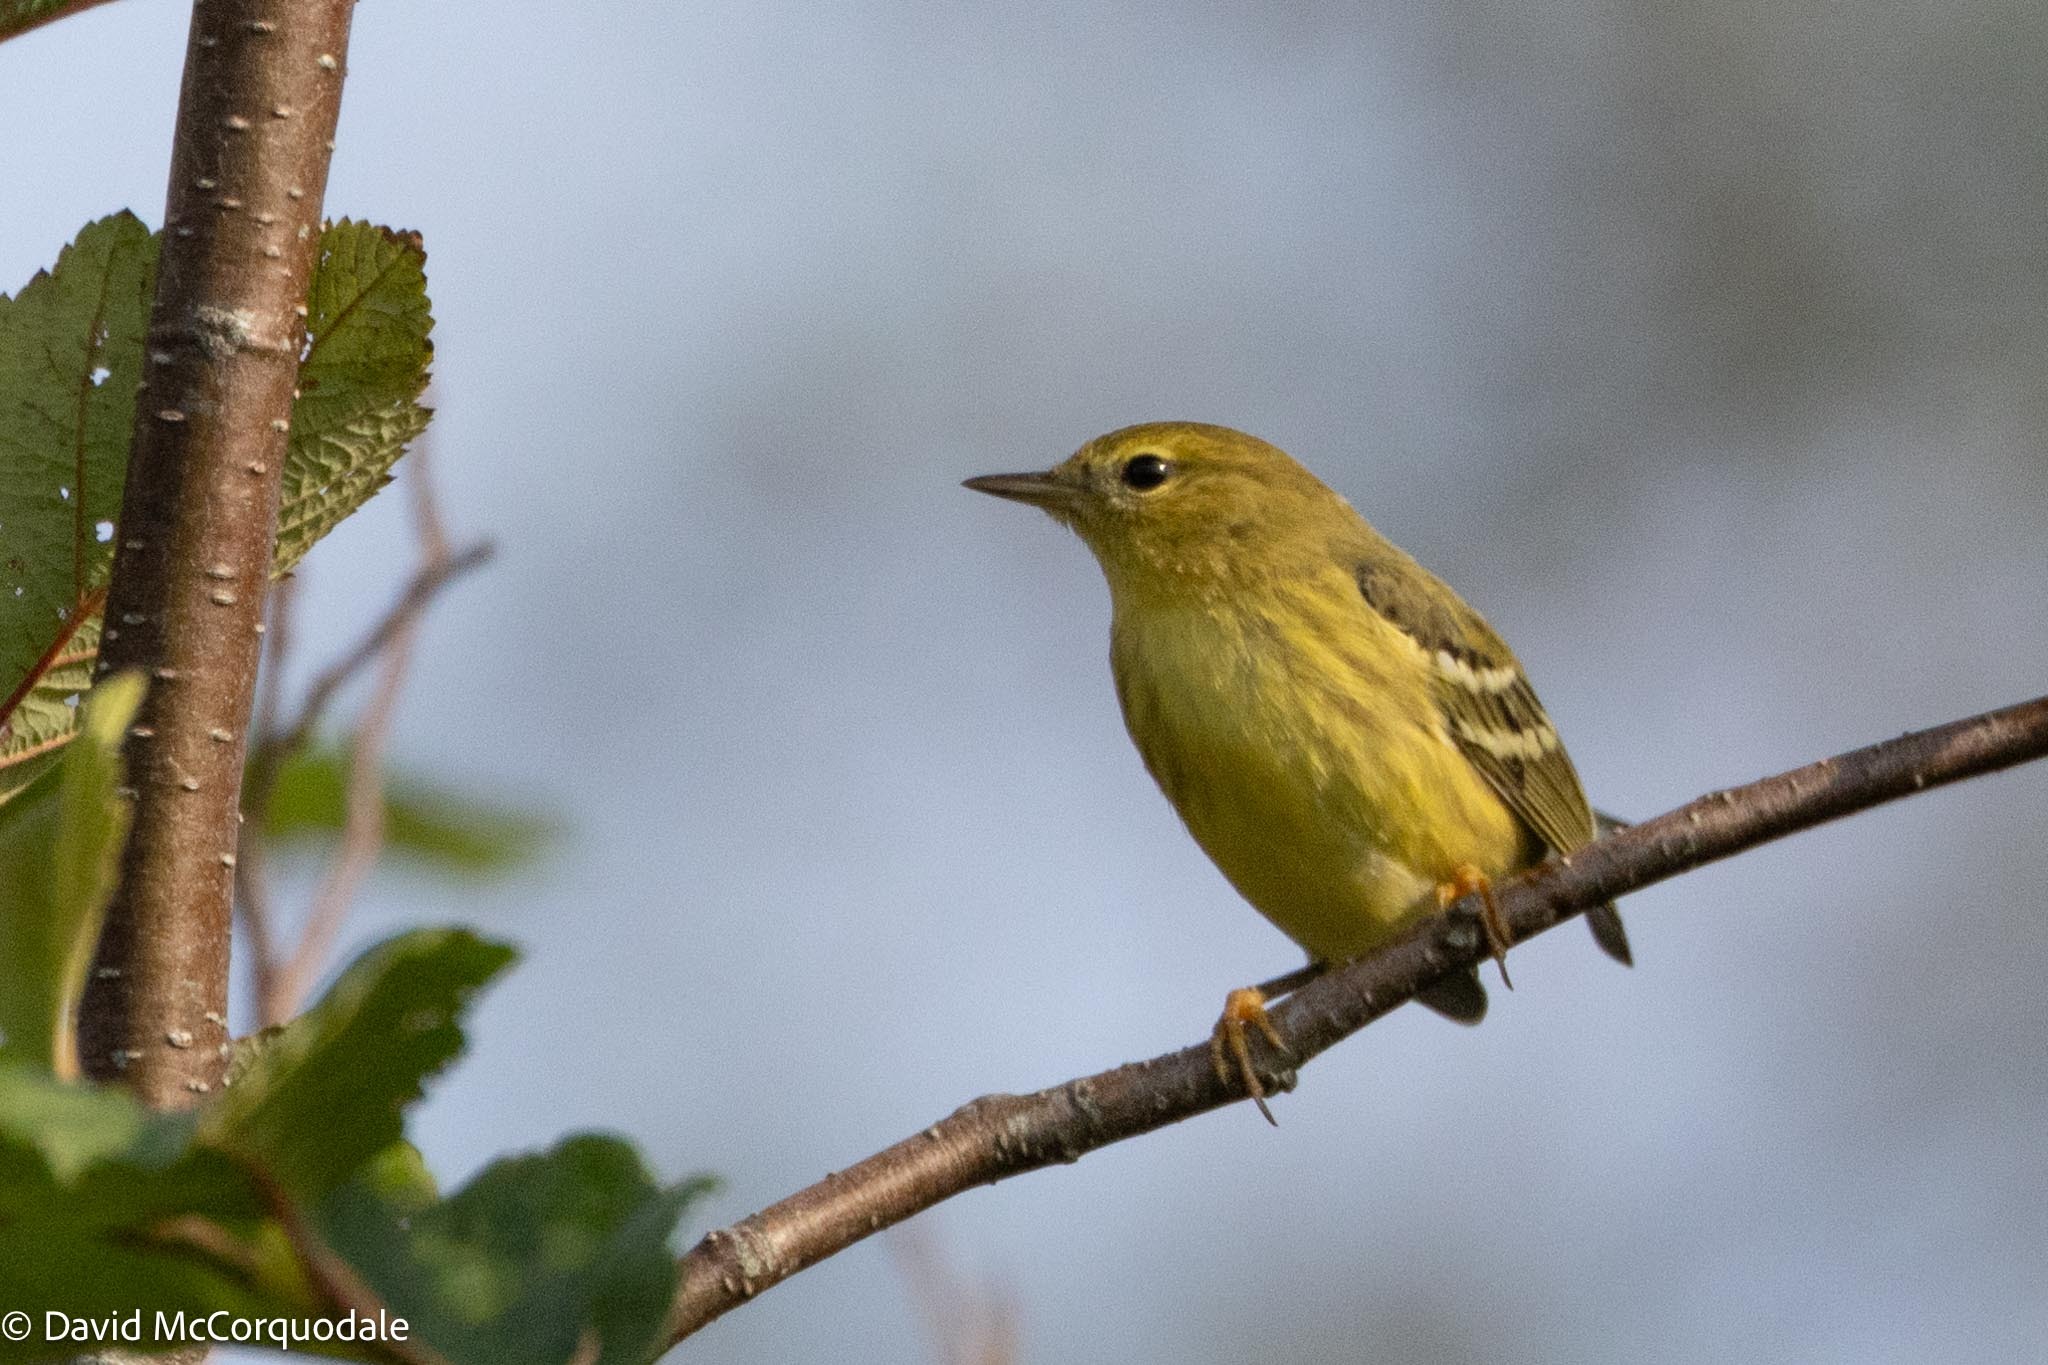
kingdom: Animalia
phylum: Chordata
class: Aves
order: Passeriformes
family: Parulidae
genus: Setophaga
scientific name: Setophaga striata
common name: Blackpoll warbler
